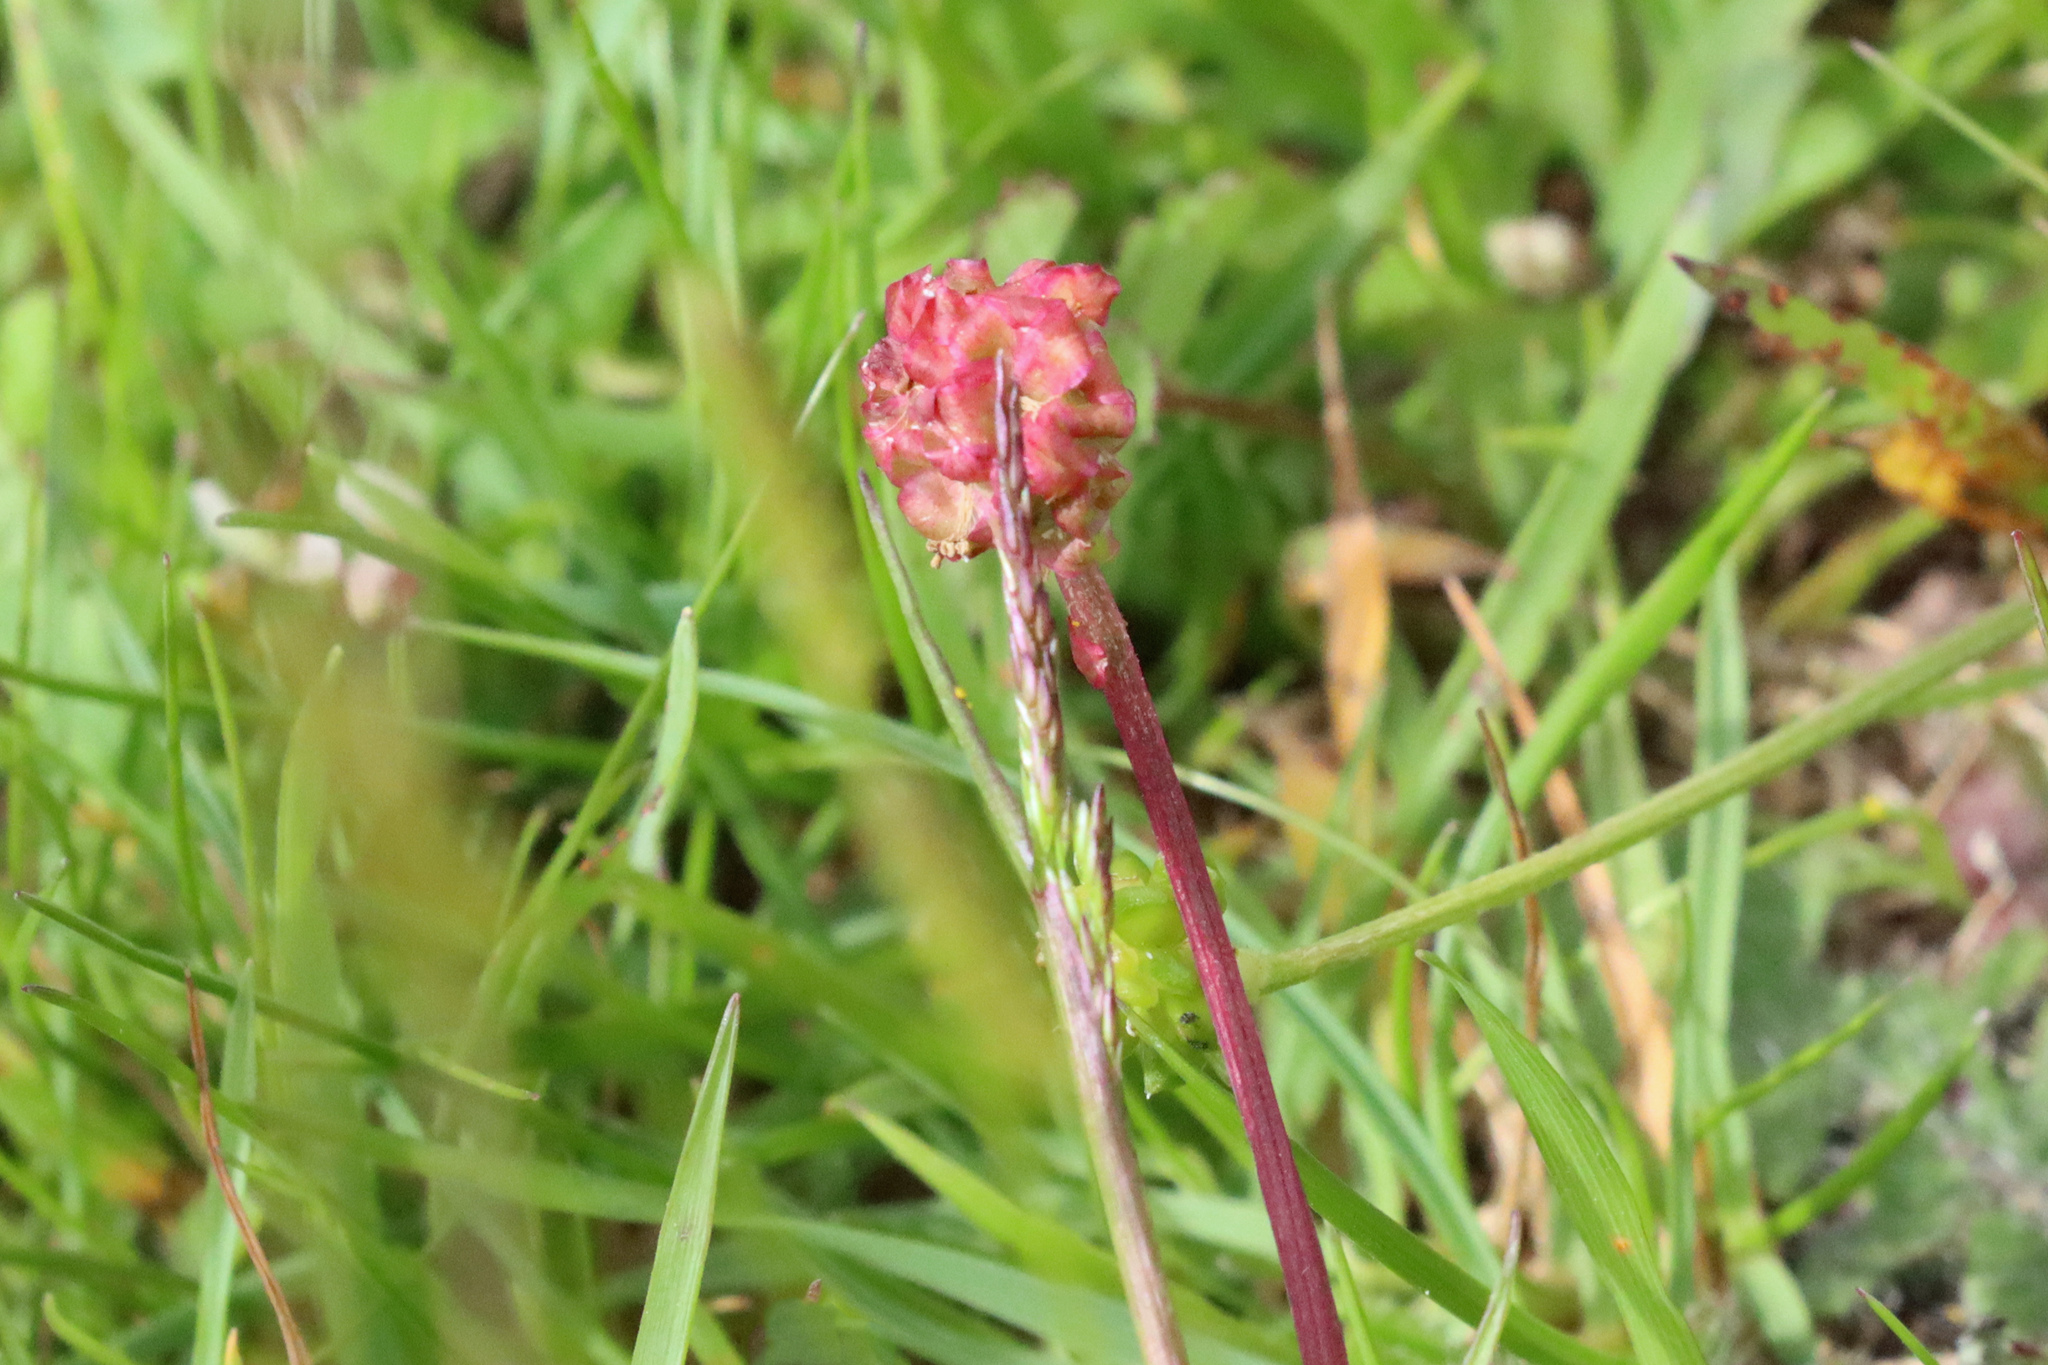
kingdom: Plantae
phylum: Tracheophyta
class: Magnoliopsida
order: Rosales
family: Rosaceae
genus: Poterium
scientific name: Poterium sanguisorba
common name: Salad burnet
